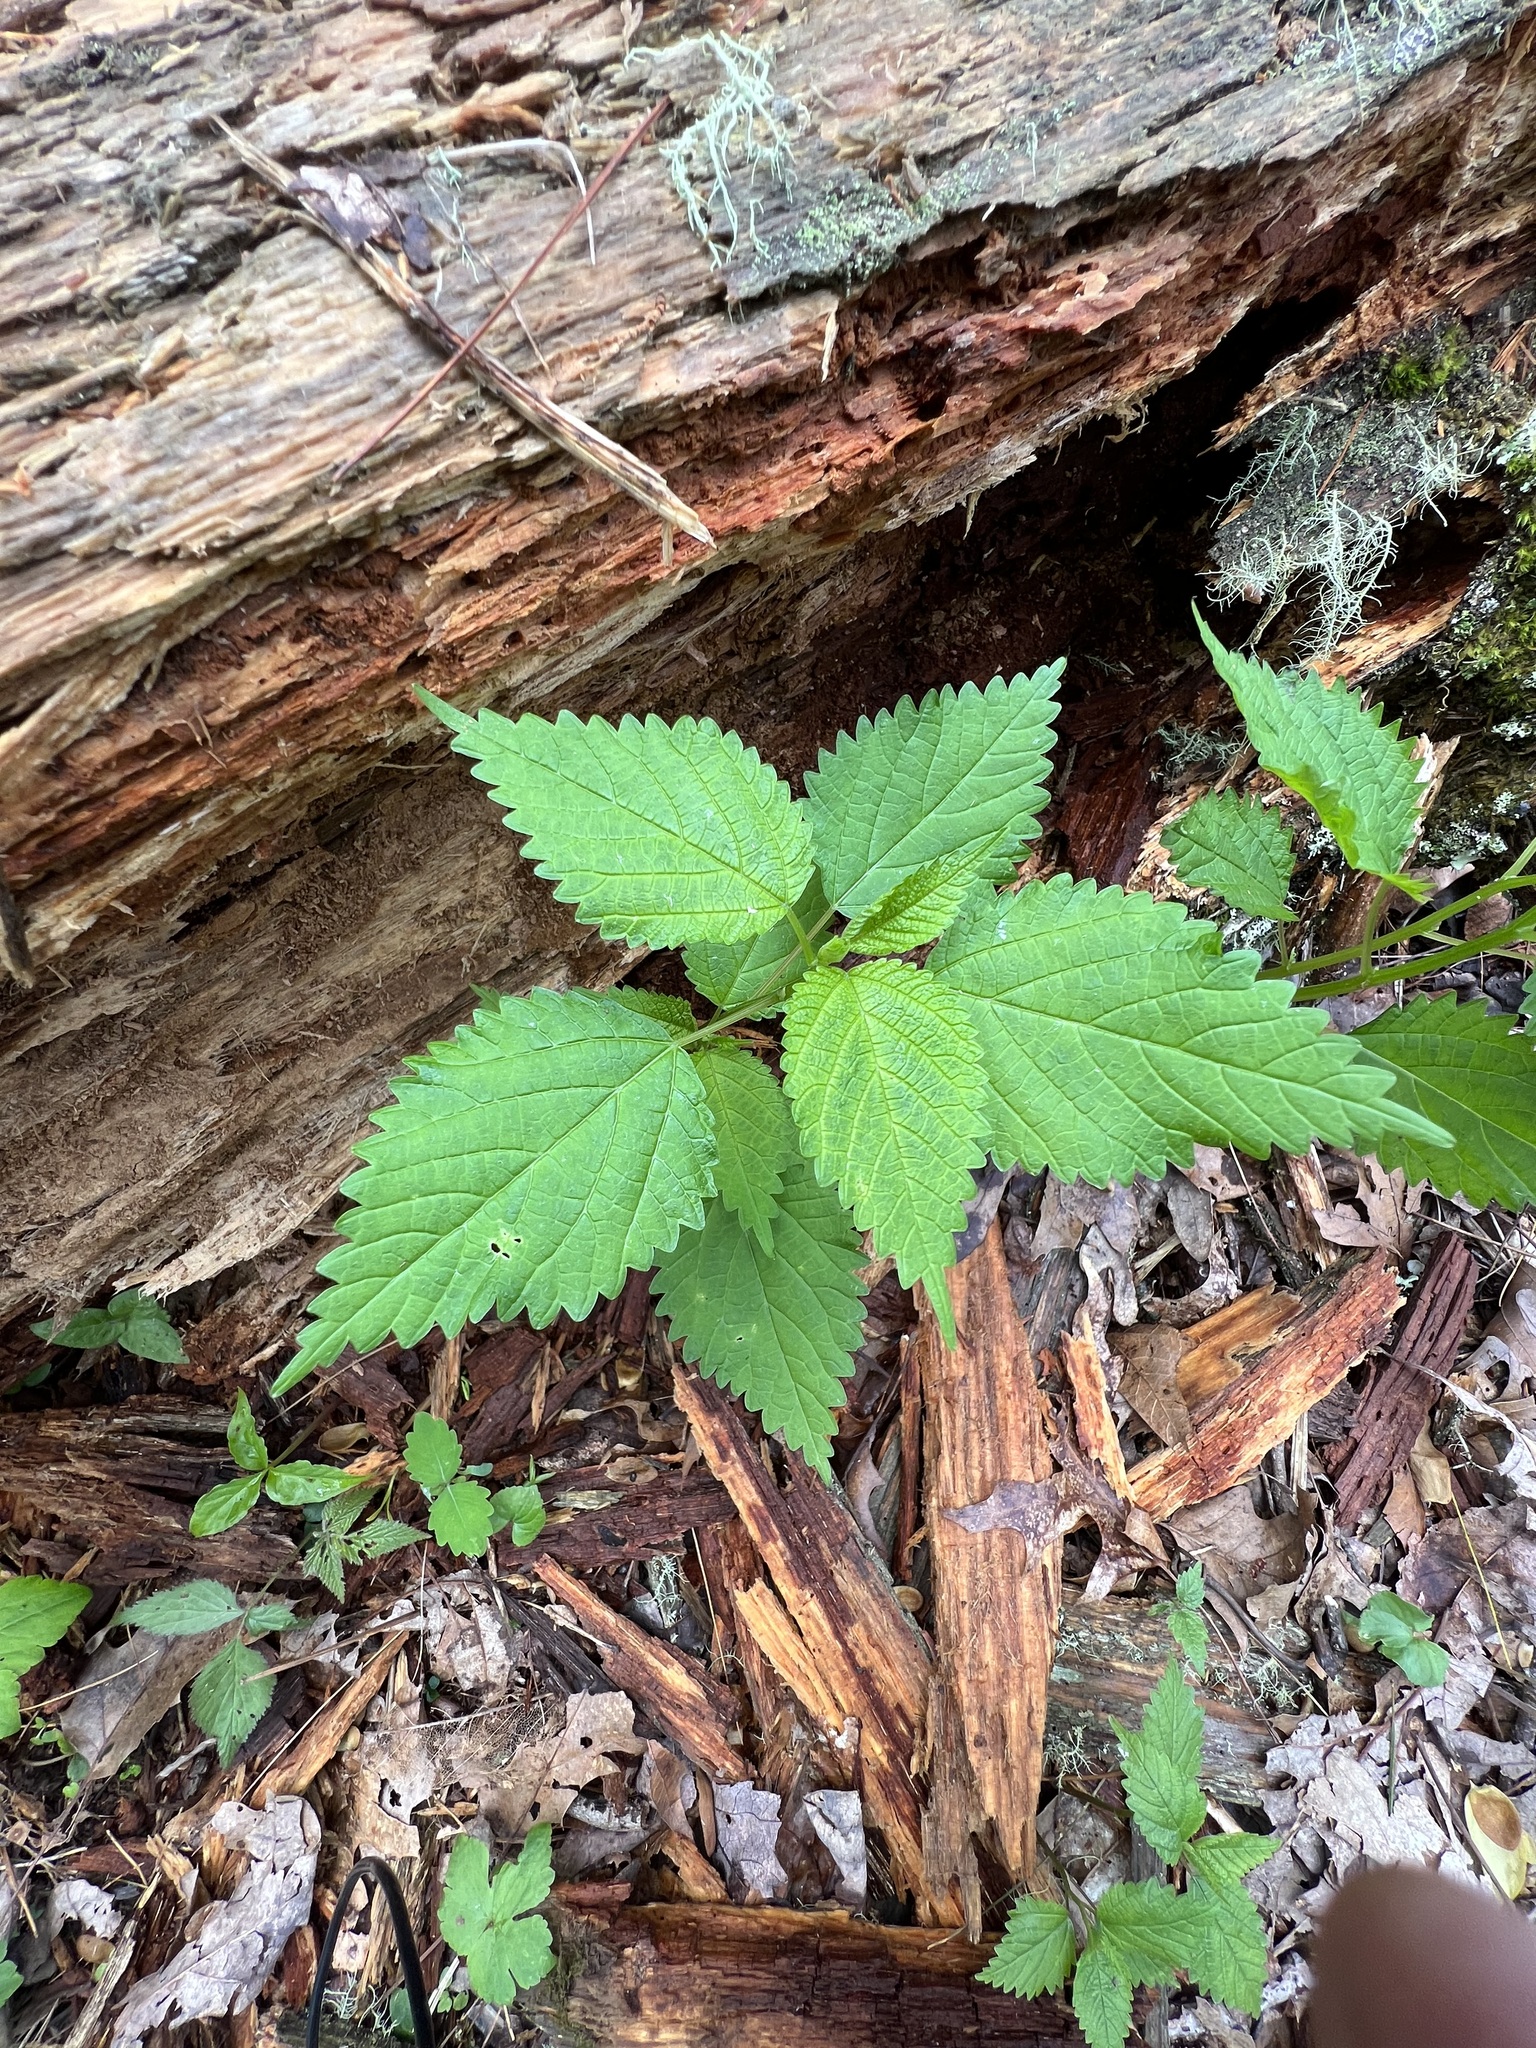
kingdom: Plantae
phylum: Tracheophyta
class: Magnoliopsida
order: Rosales
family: Urticaceae
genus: Laportea
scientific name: Laportea canadensis
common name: Canada nettle
